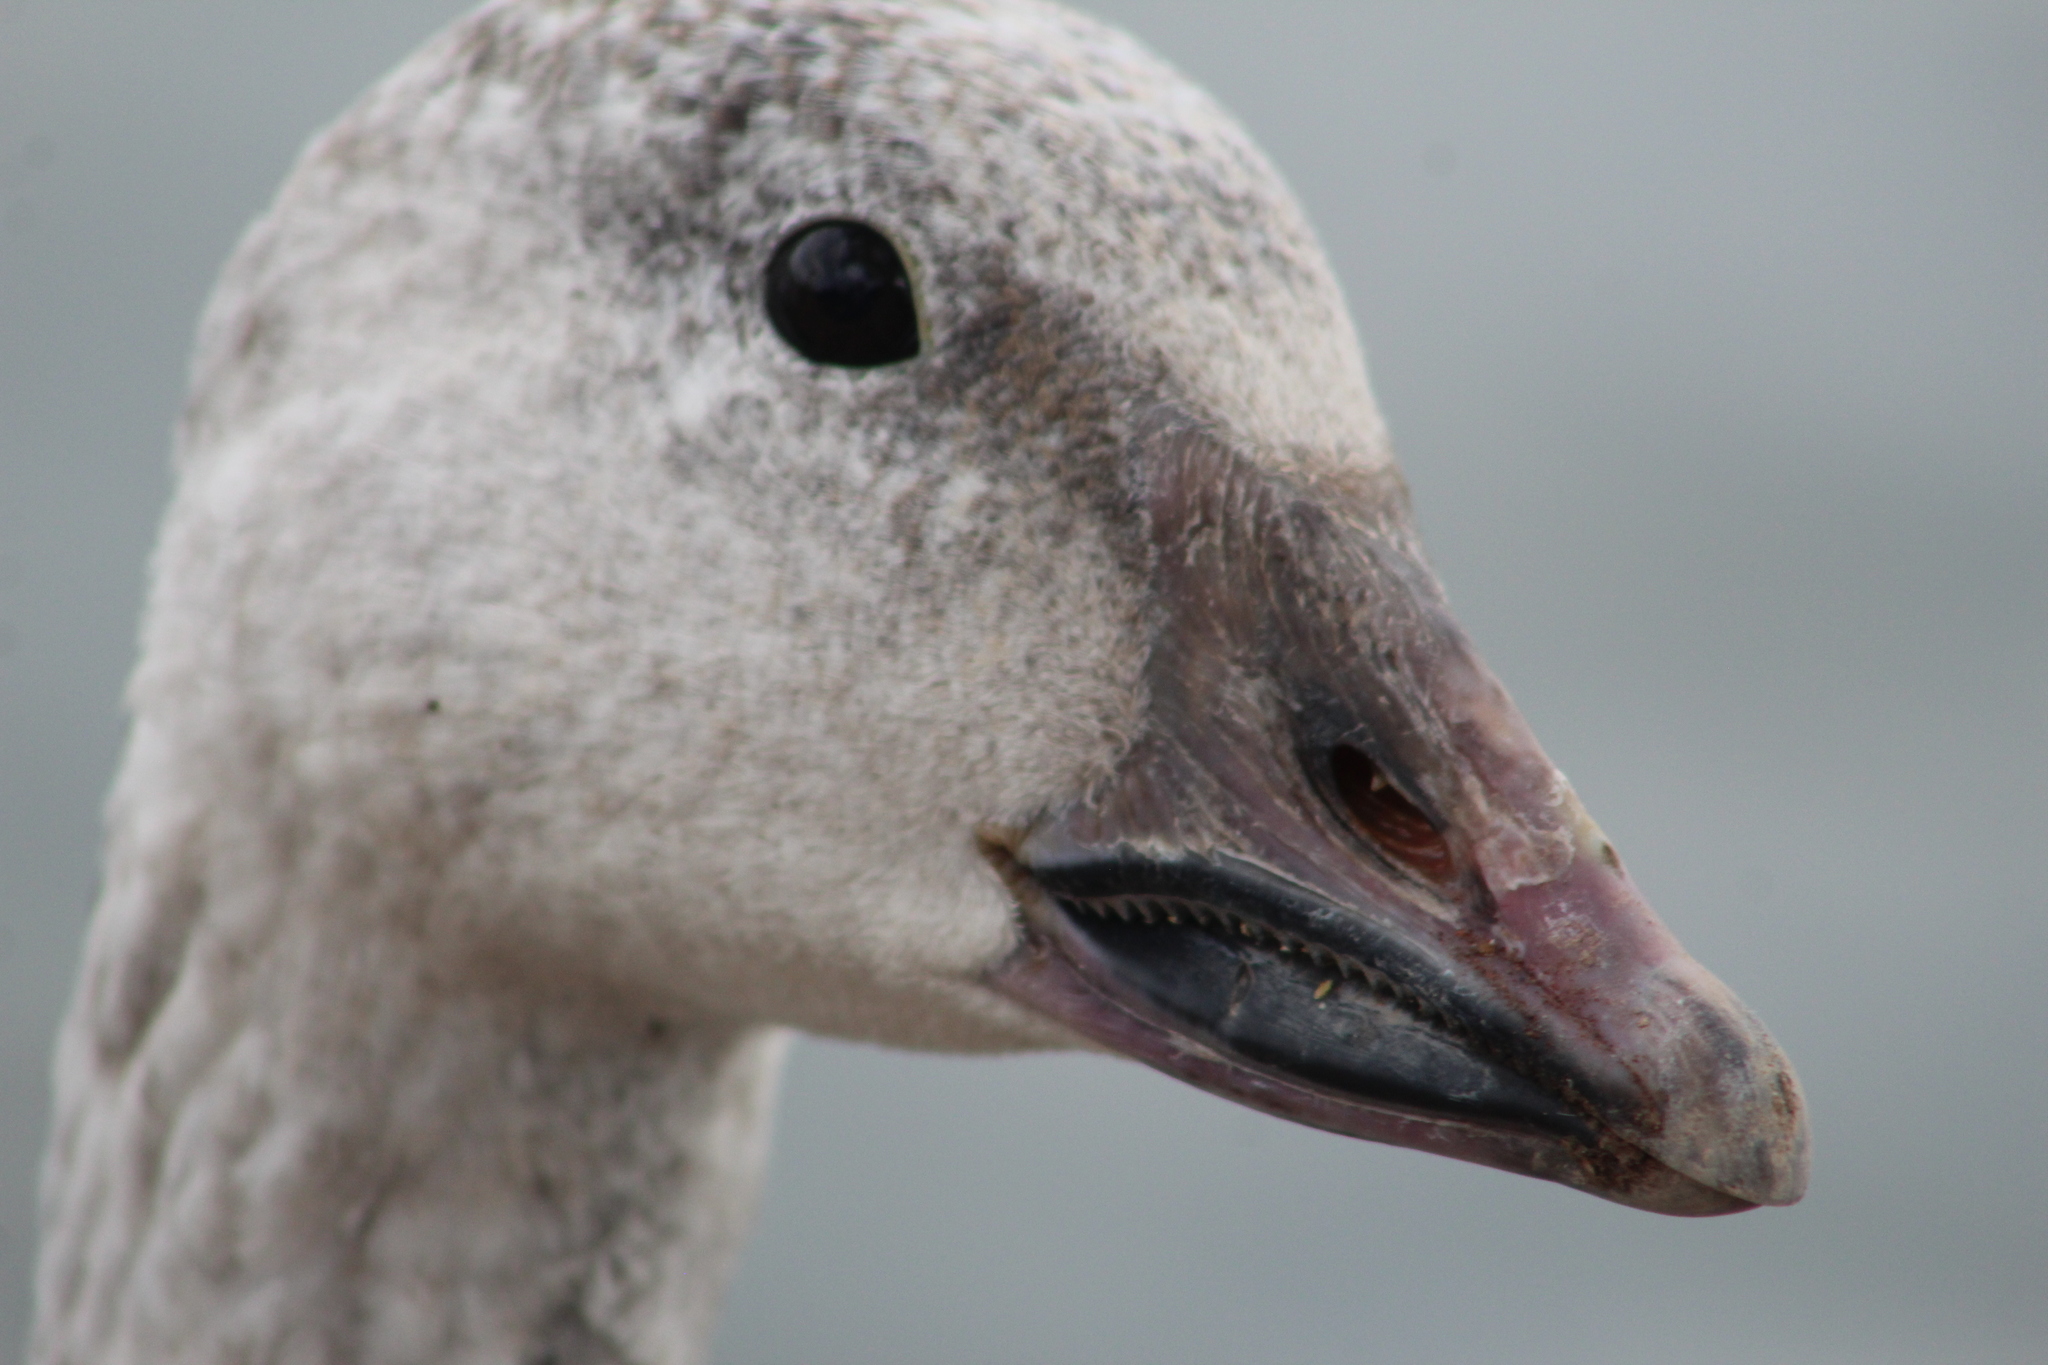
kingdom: Animalia
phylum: Chordata
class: Aves
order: Anseriformes
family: Anatidae
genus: Anser
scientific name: Anser caerulescens
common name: Snow goose
